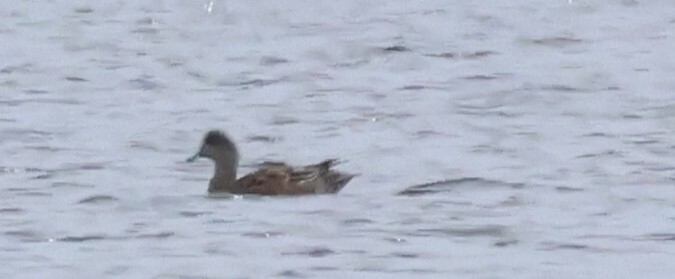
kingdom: Animalia
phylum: Chordata
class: Aves
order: Anseriformes
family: Anatidae
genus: Mareca
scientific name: Mareca americana
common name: American wigeon
